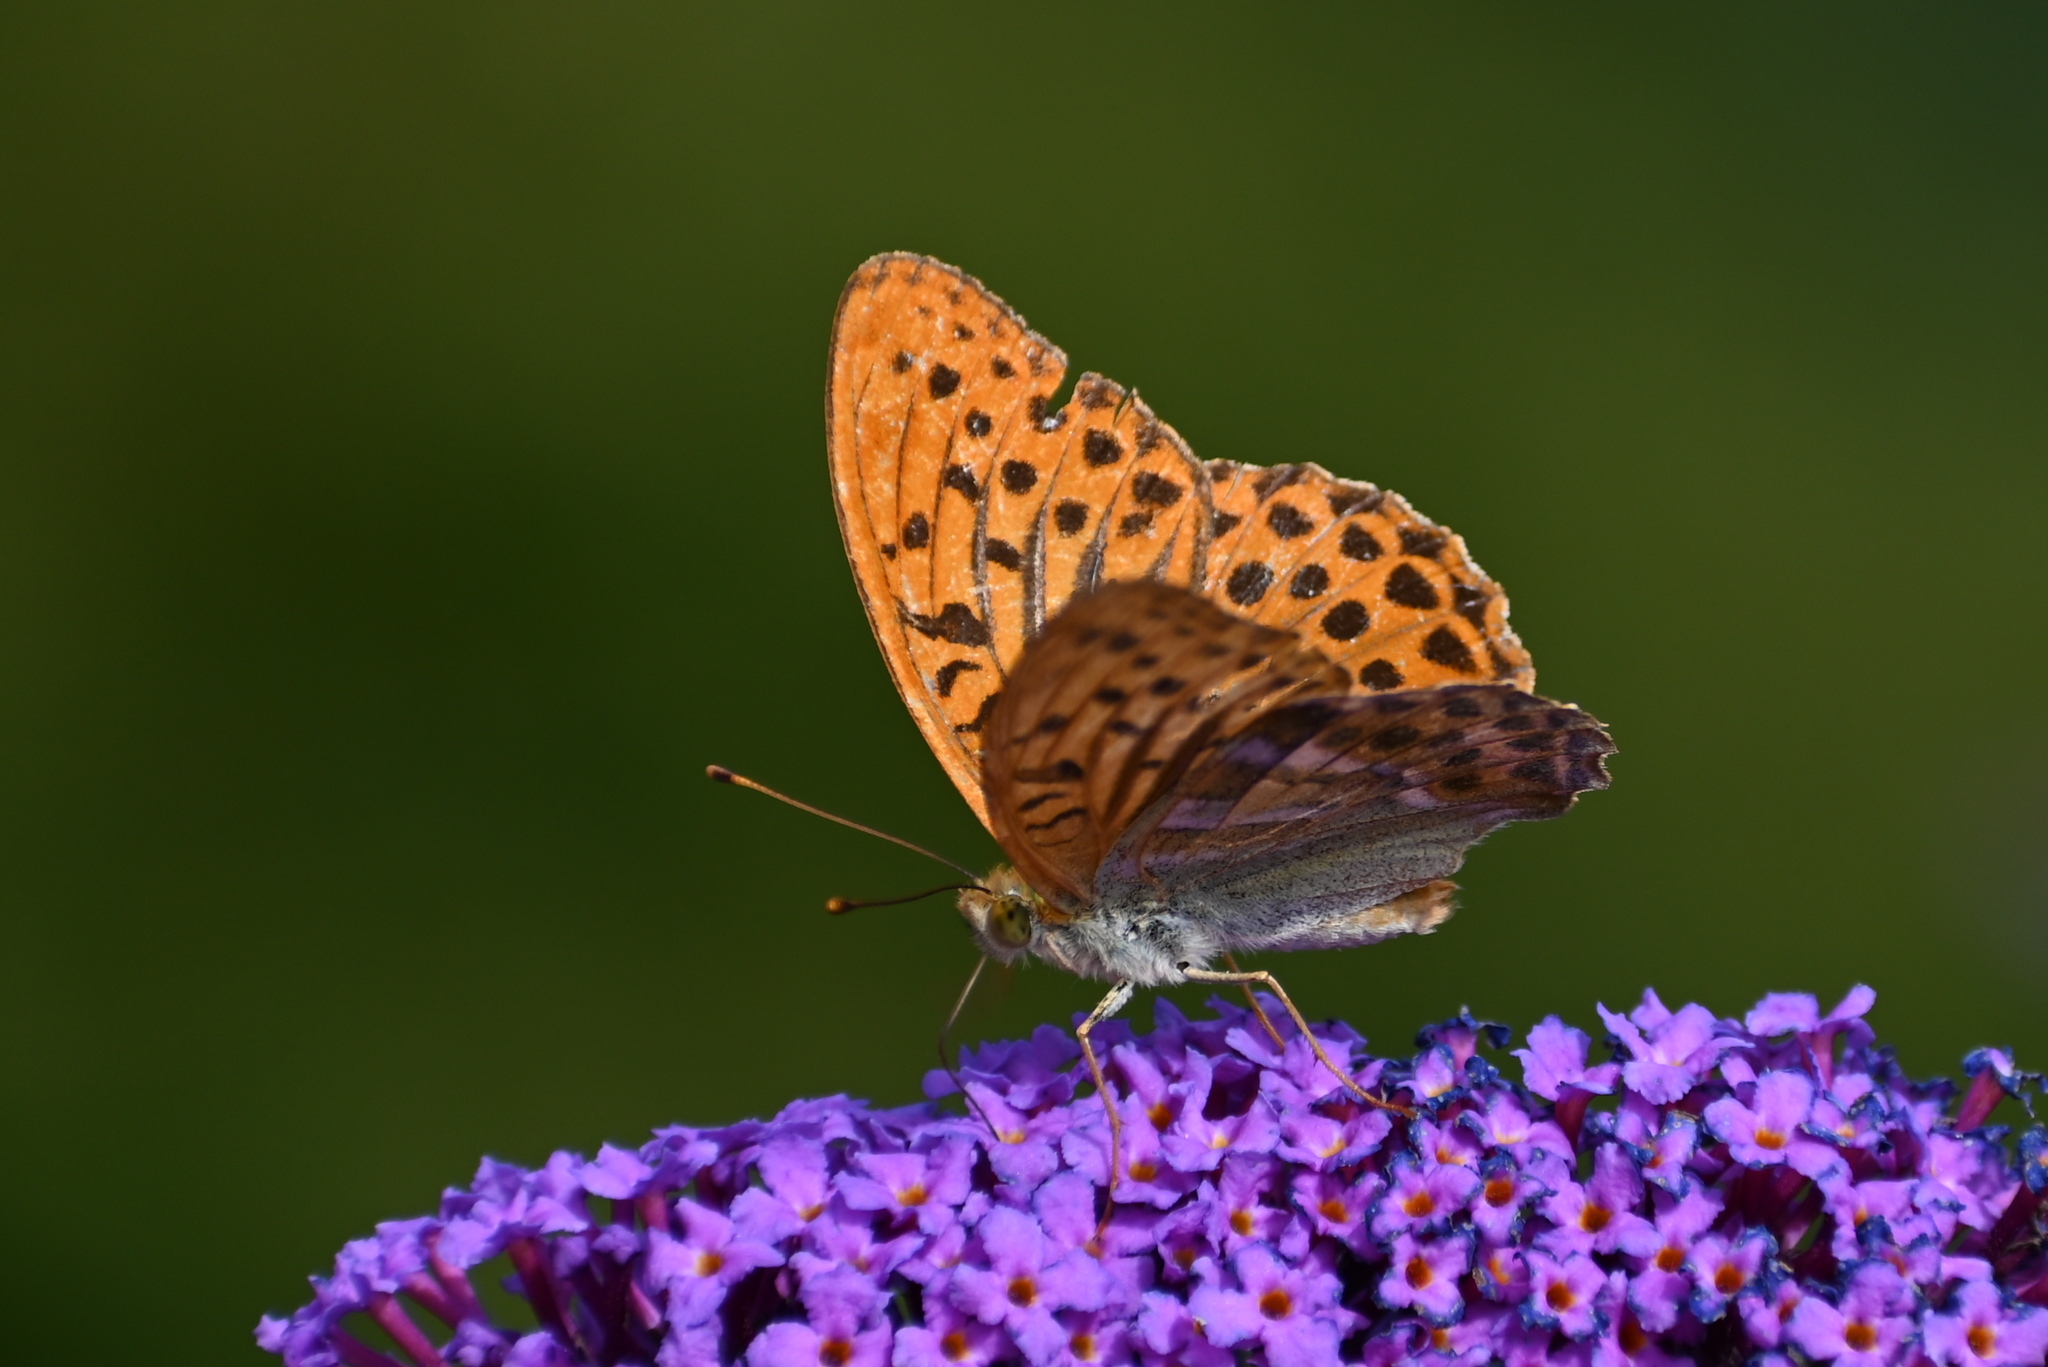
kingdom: Animalia
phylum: Arthropoda
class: Insecta
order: Lepidoptera
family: Nymphalidae
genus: Argynnis
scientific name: Argynnis paphia
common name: Silver-washed fritillary
